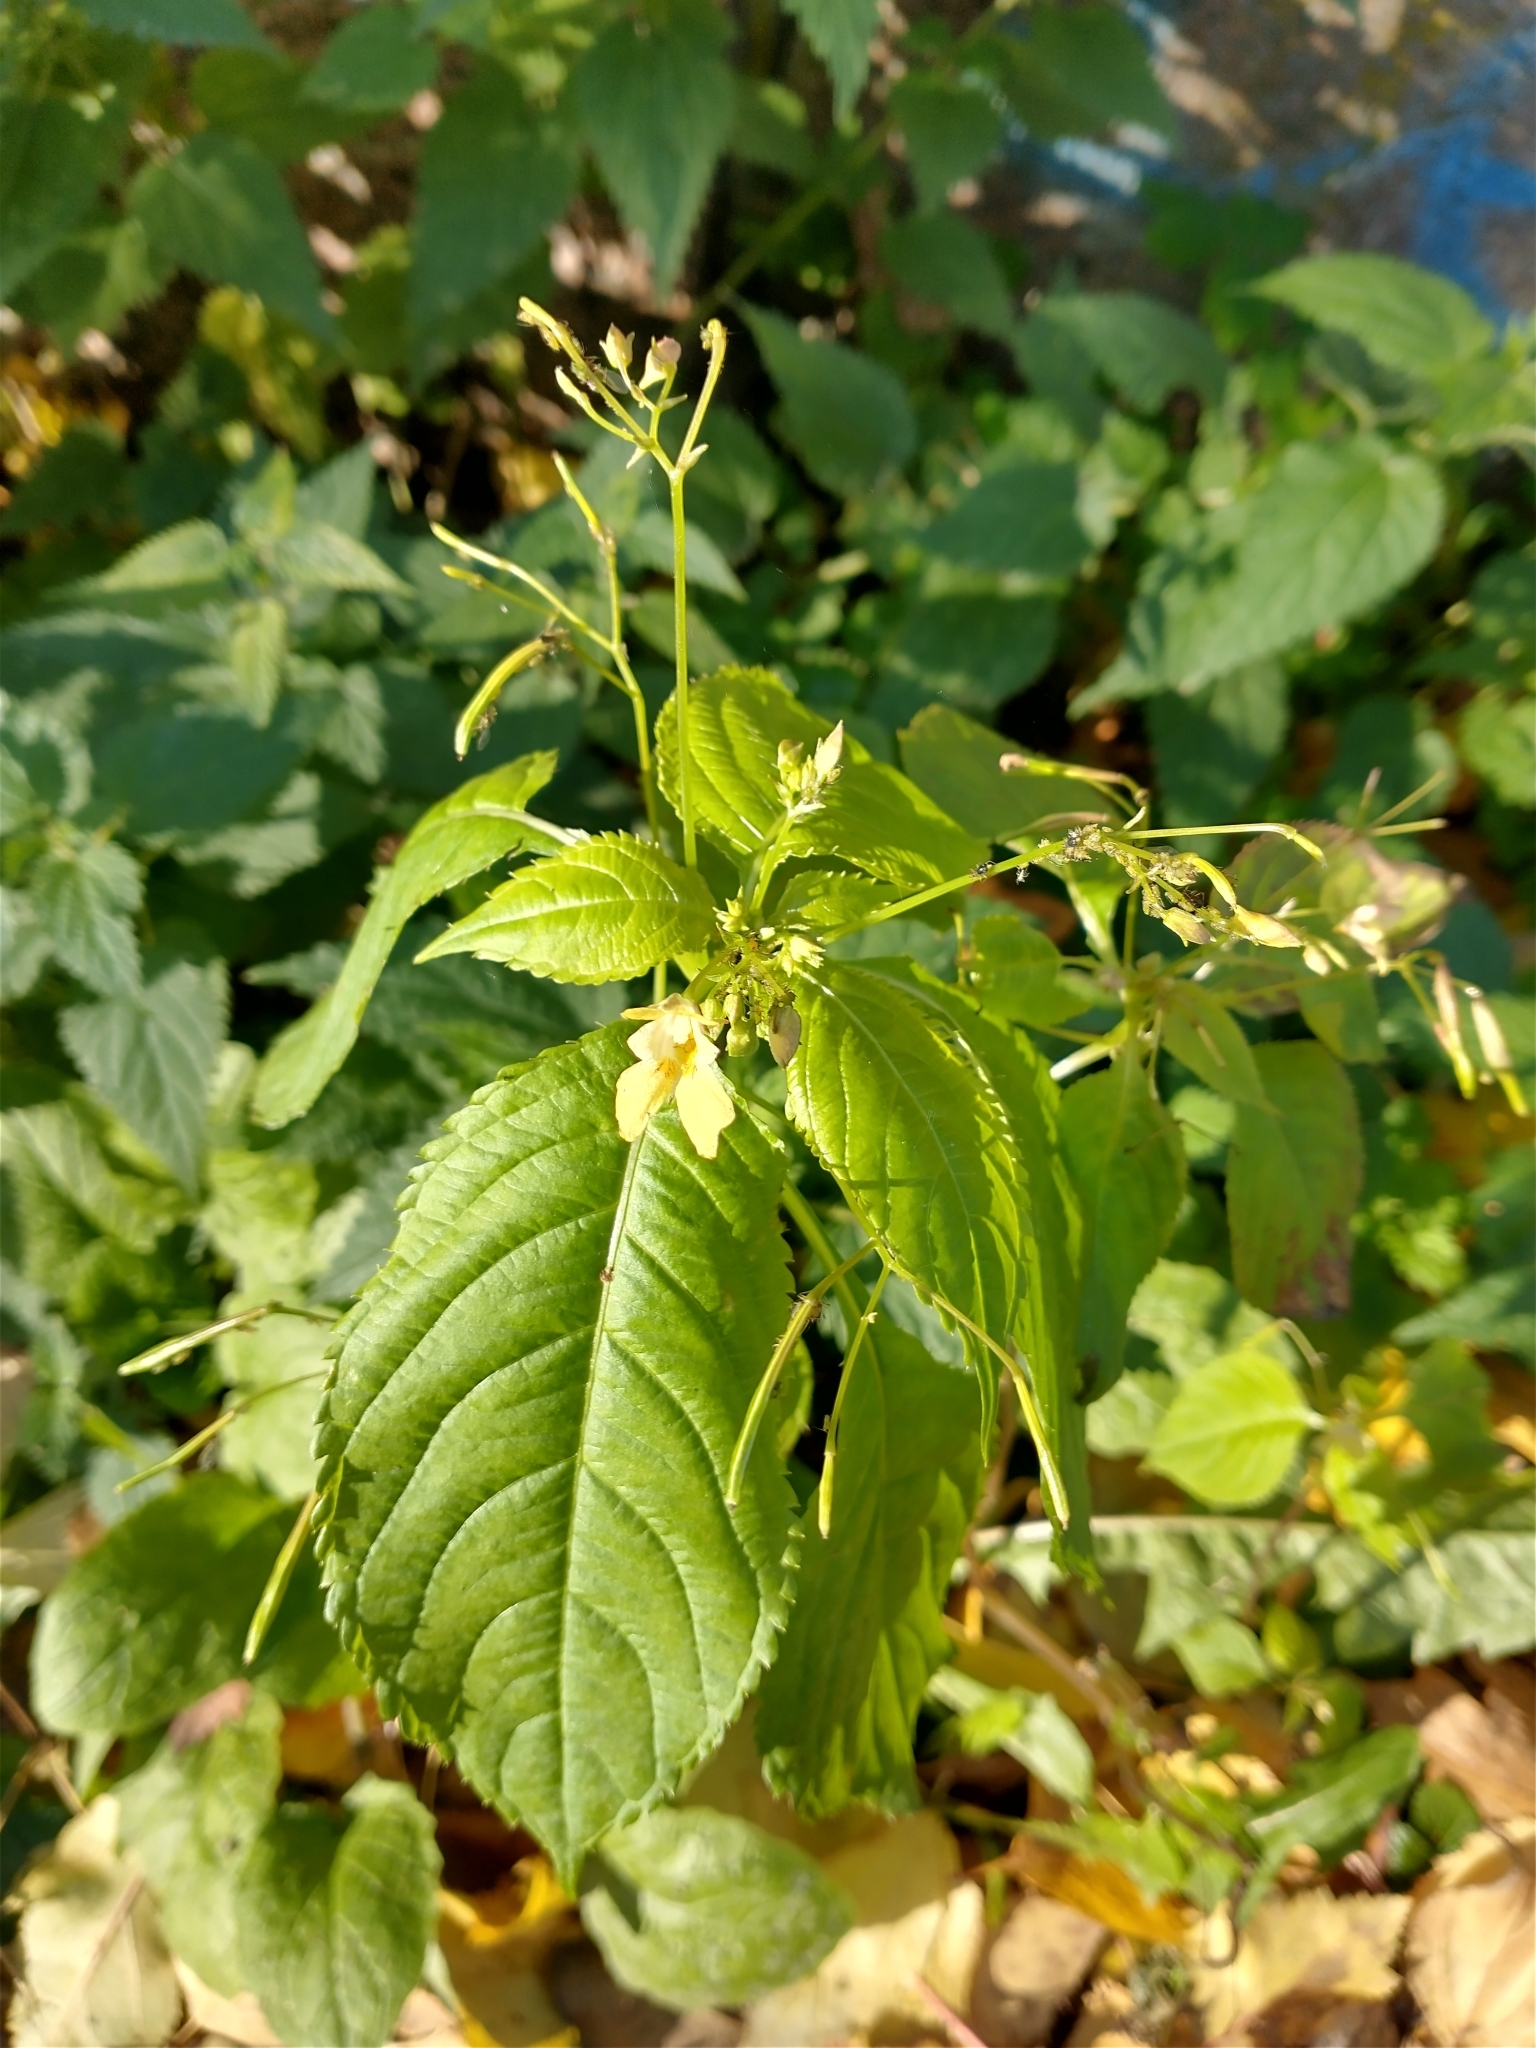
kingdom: Plantae
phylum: Tracheophyta
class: Magnoliopsida
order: Ericales
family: Balsaminaceae
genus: Impatiens
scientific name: Impatiens parviflora
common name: Small balsam
